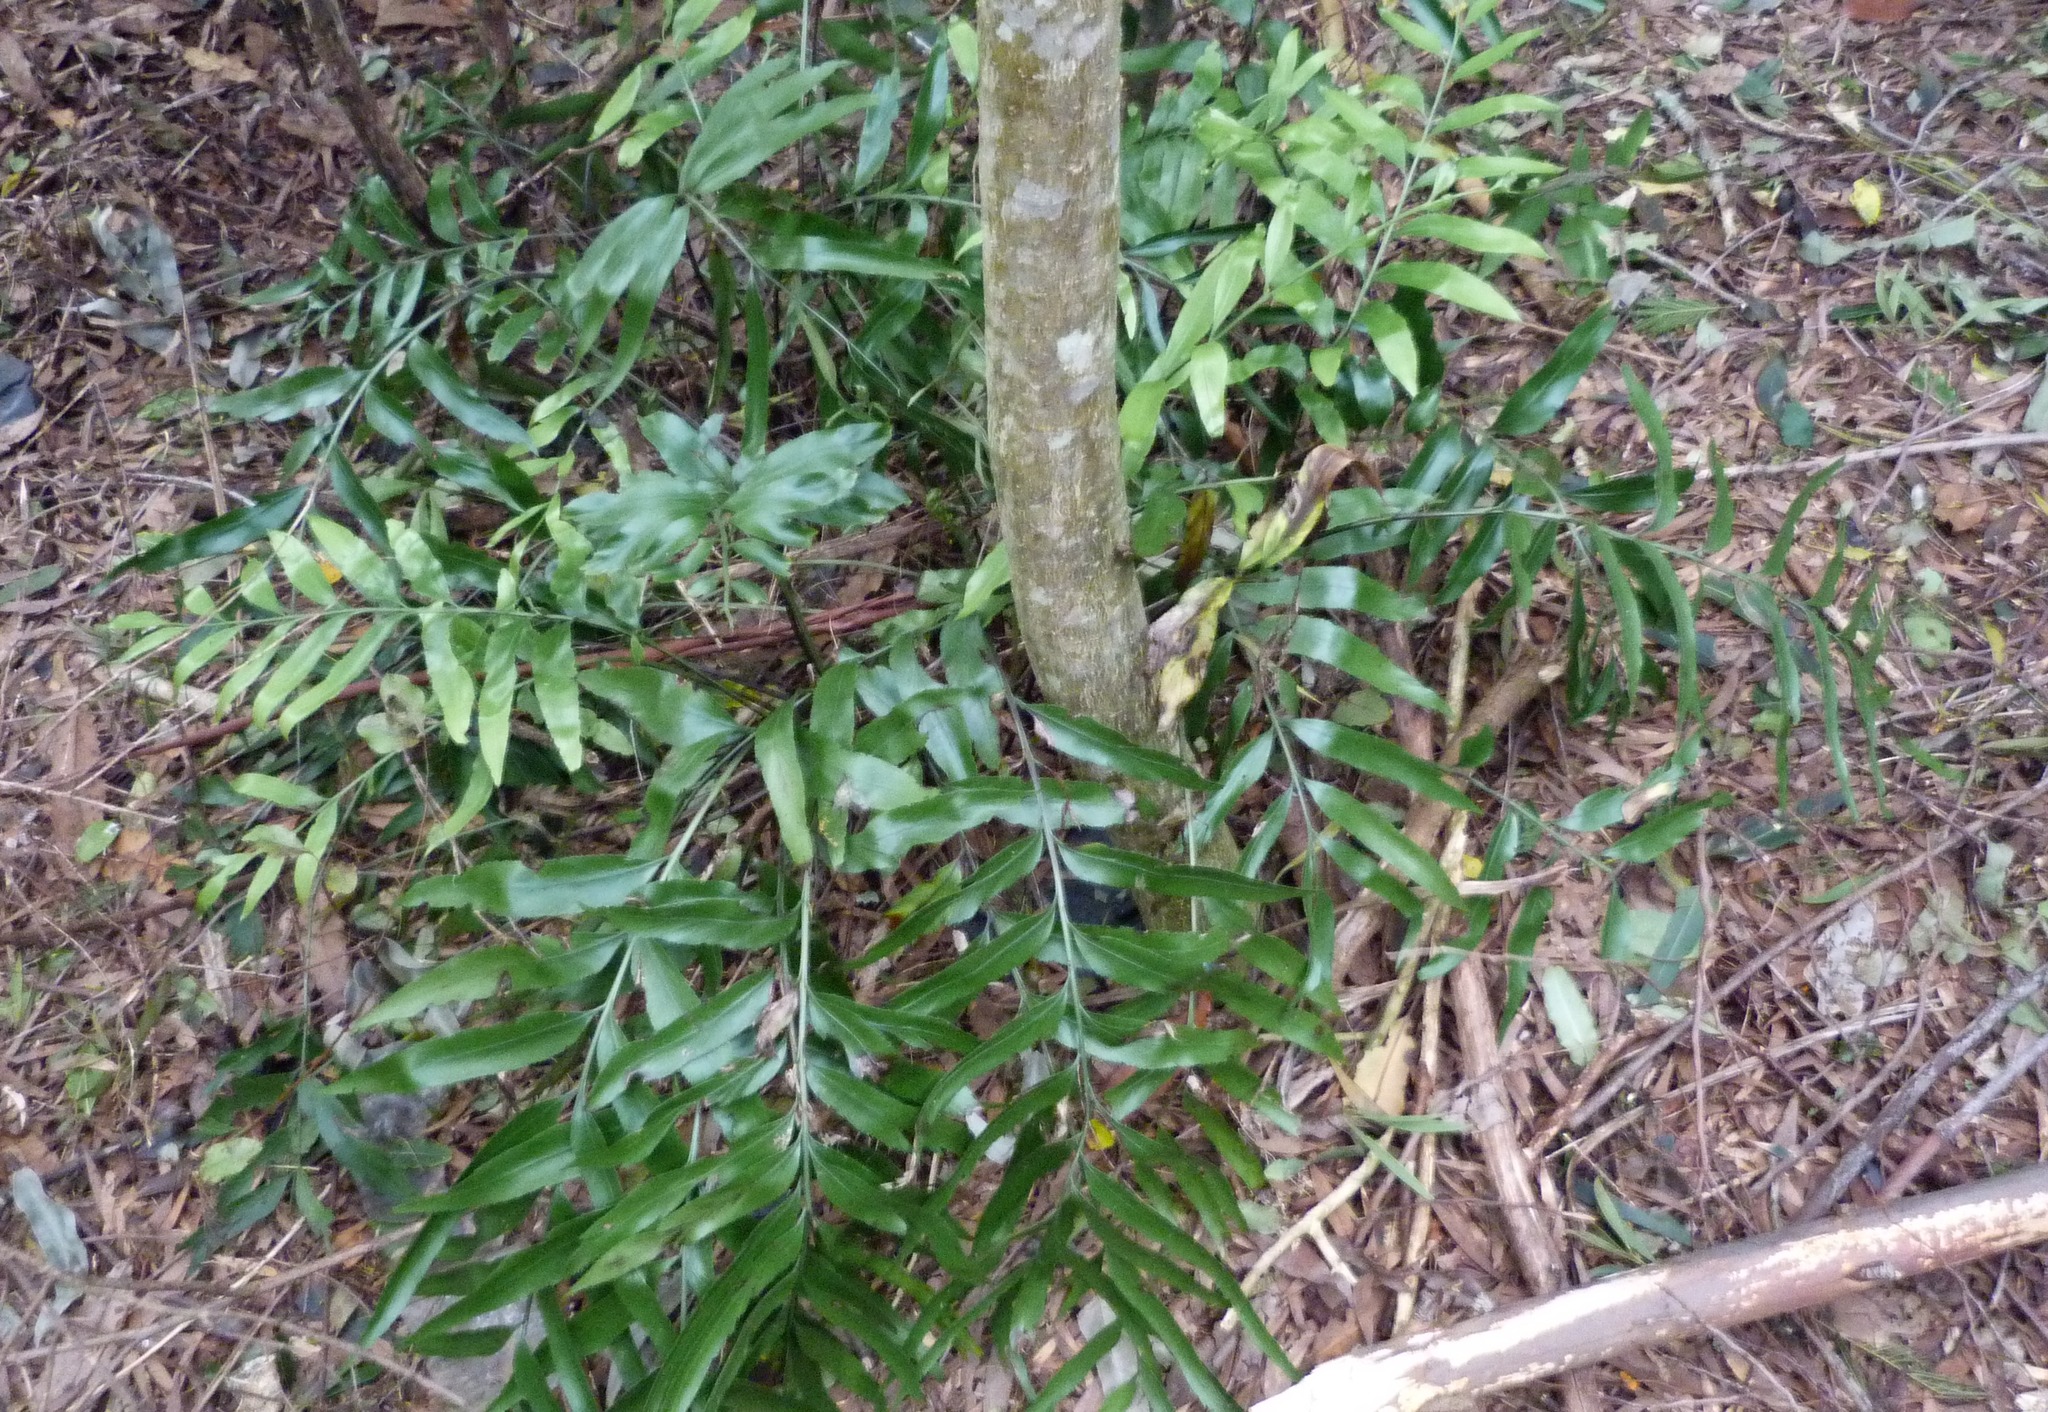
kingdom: Plantae
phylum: Tracheophyta
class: Polypodiopsida
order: Polypodiales
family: Aspleniaceae
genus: Asplenium
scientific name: Asplenium oblongifolium
